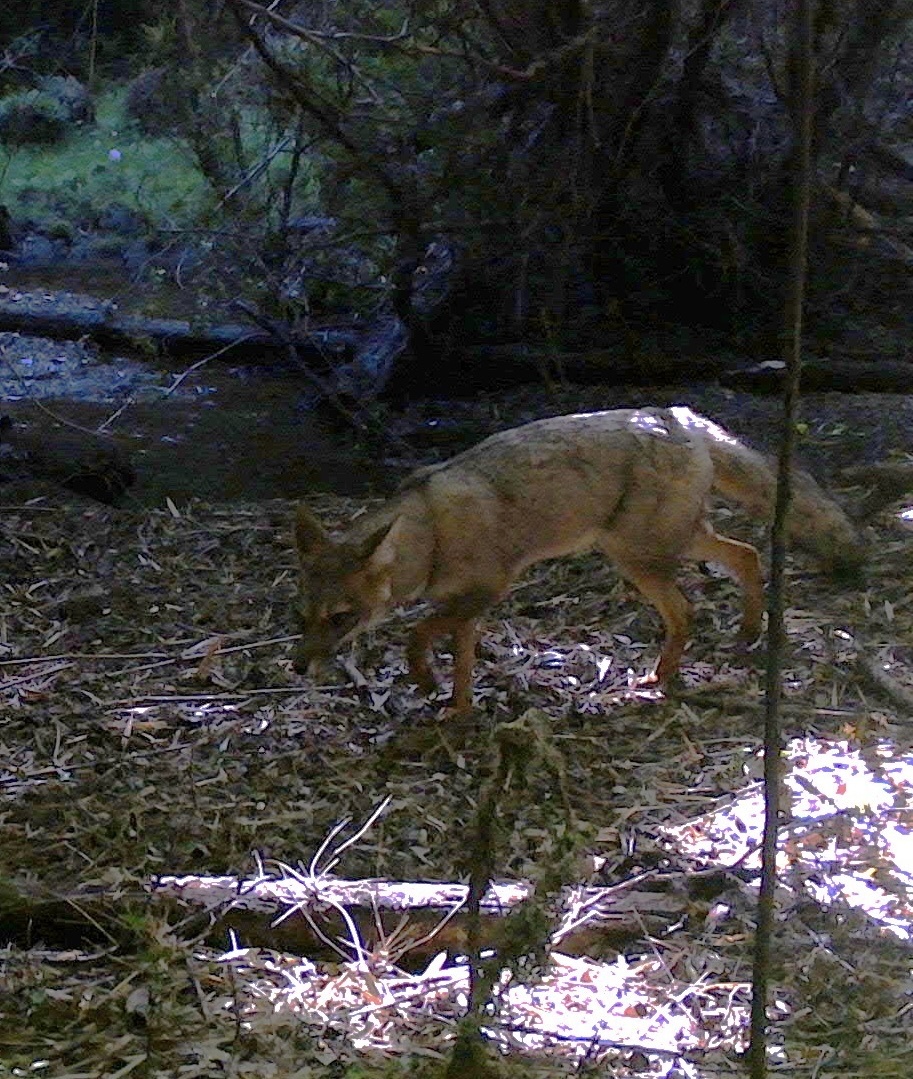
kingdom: Animalia
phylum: Chordata
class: Mammalia
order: Carnivora
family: Canidae
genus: Lycalopex
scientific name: Lycalopex gymnocercus
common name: Pampas fox
